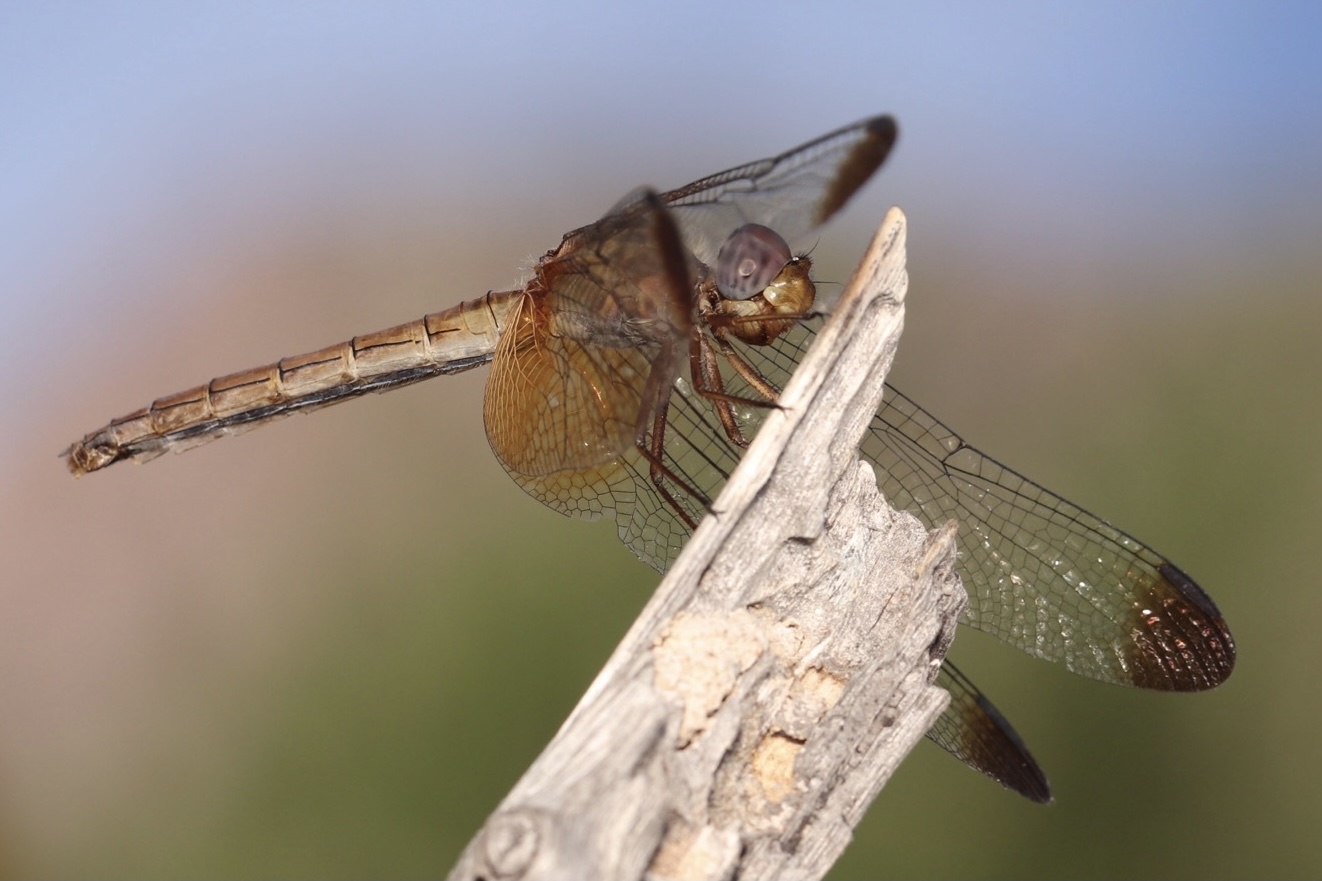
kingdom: Animalia
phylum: Arthropoda
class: Insecta
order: Odonata
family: Libellulidae
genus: Dythemis
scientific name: Dythemis maya
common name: Mayan setwing
